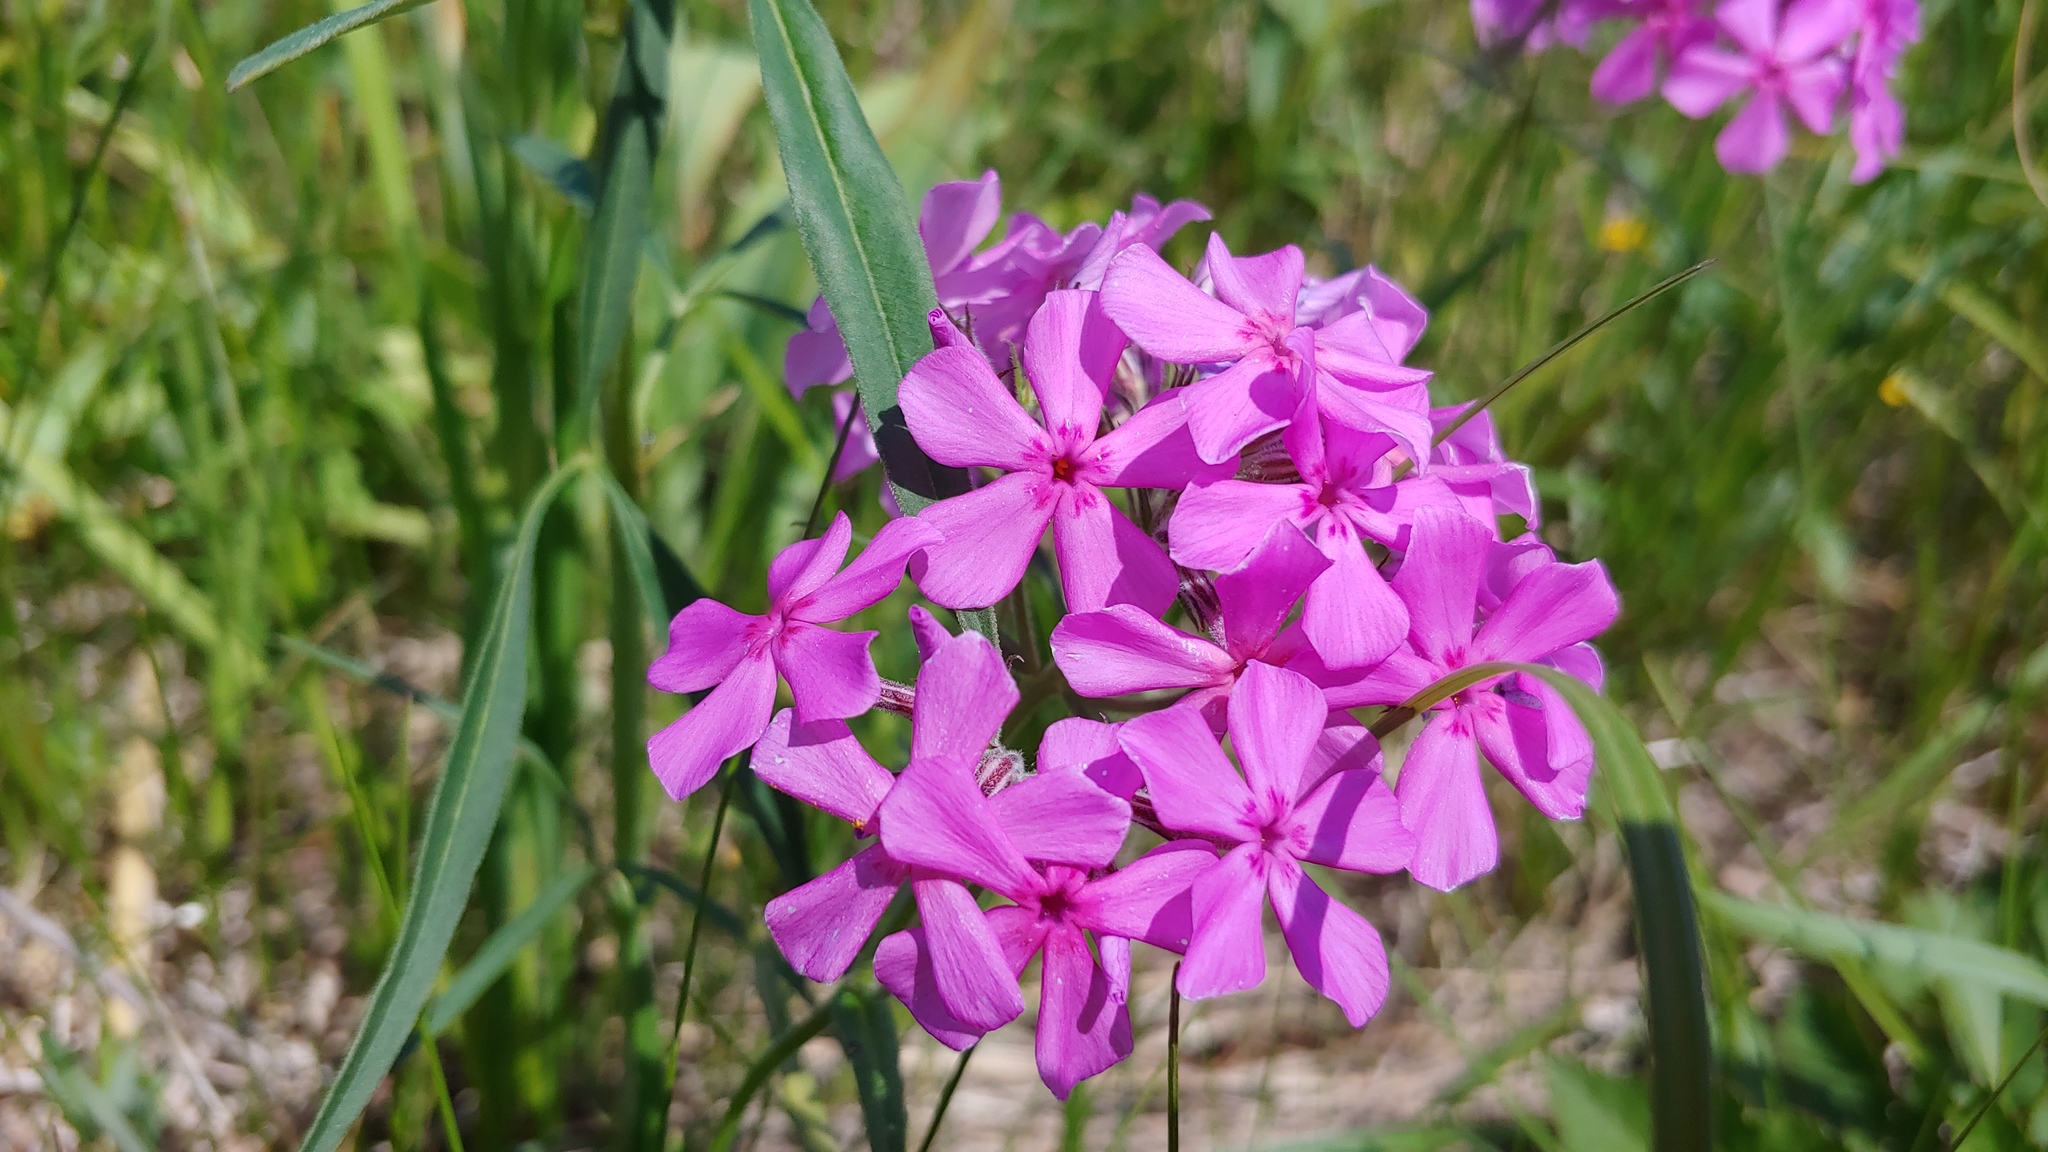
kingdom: Plantae
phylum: Tracheophyta
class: Magnoliopsida
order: Ericales
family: Polemoniaceae
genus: Phlox
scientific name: Phlox pilosa
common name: Prairie phlox
